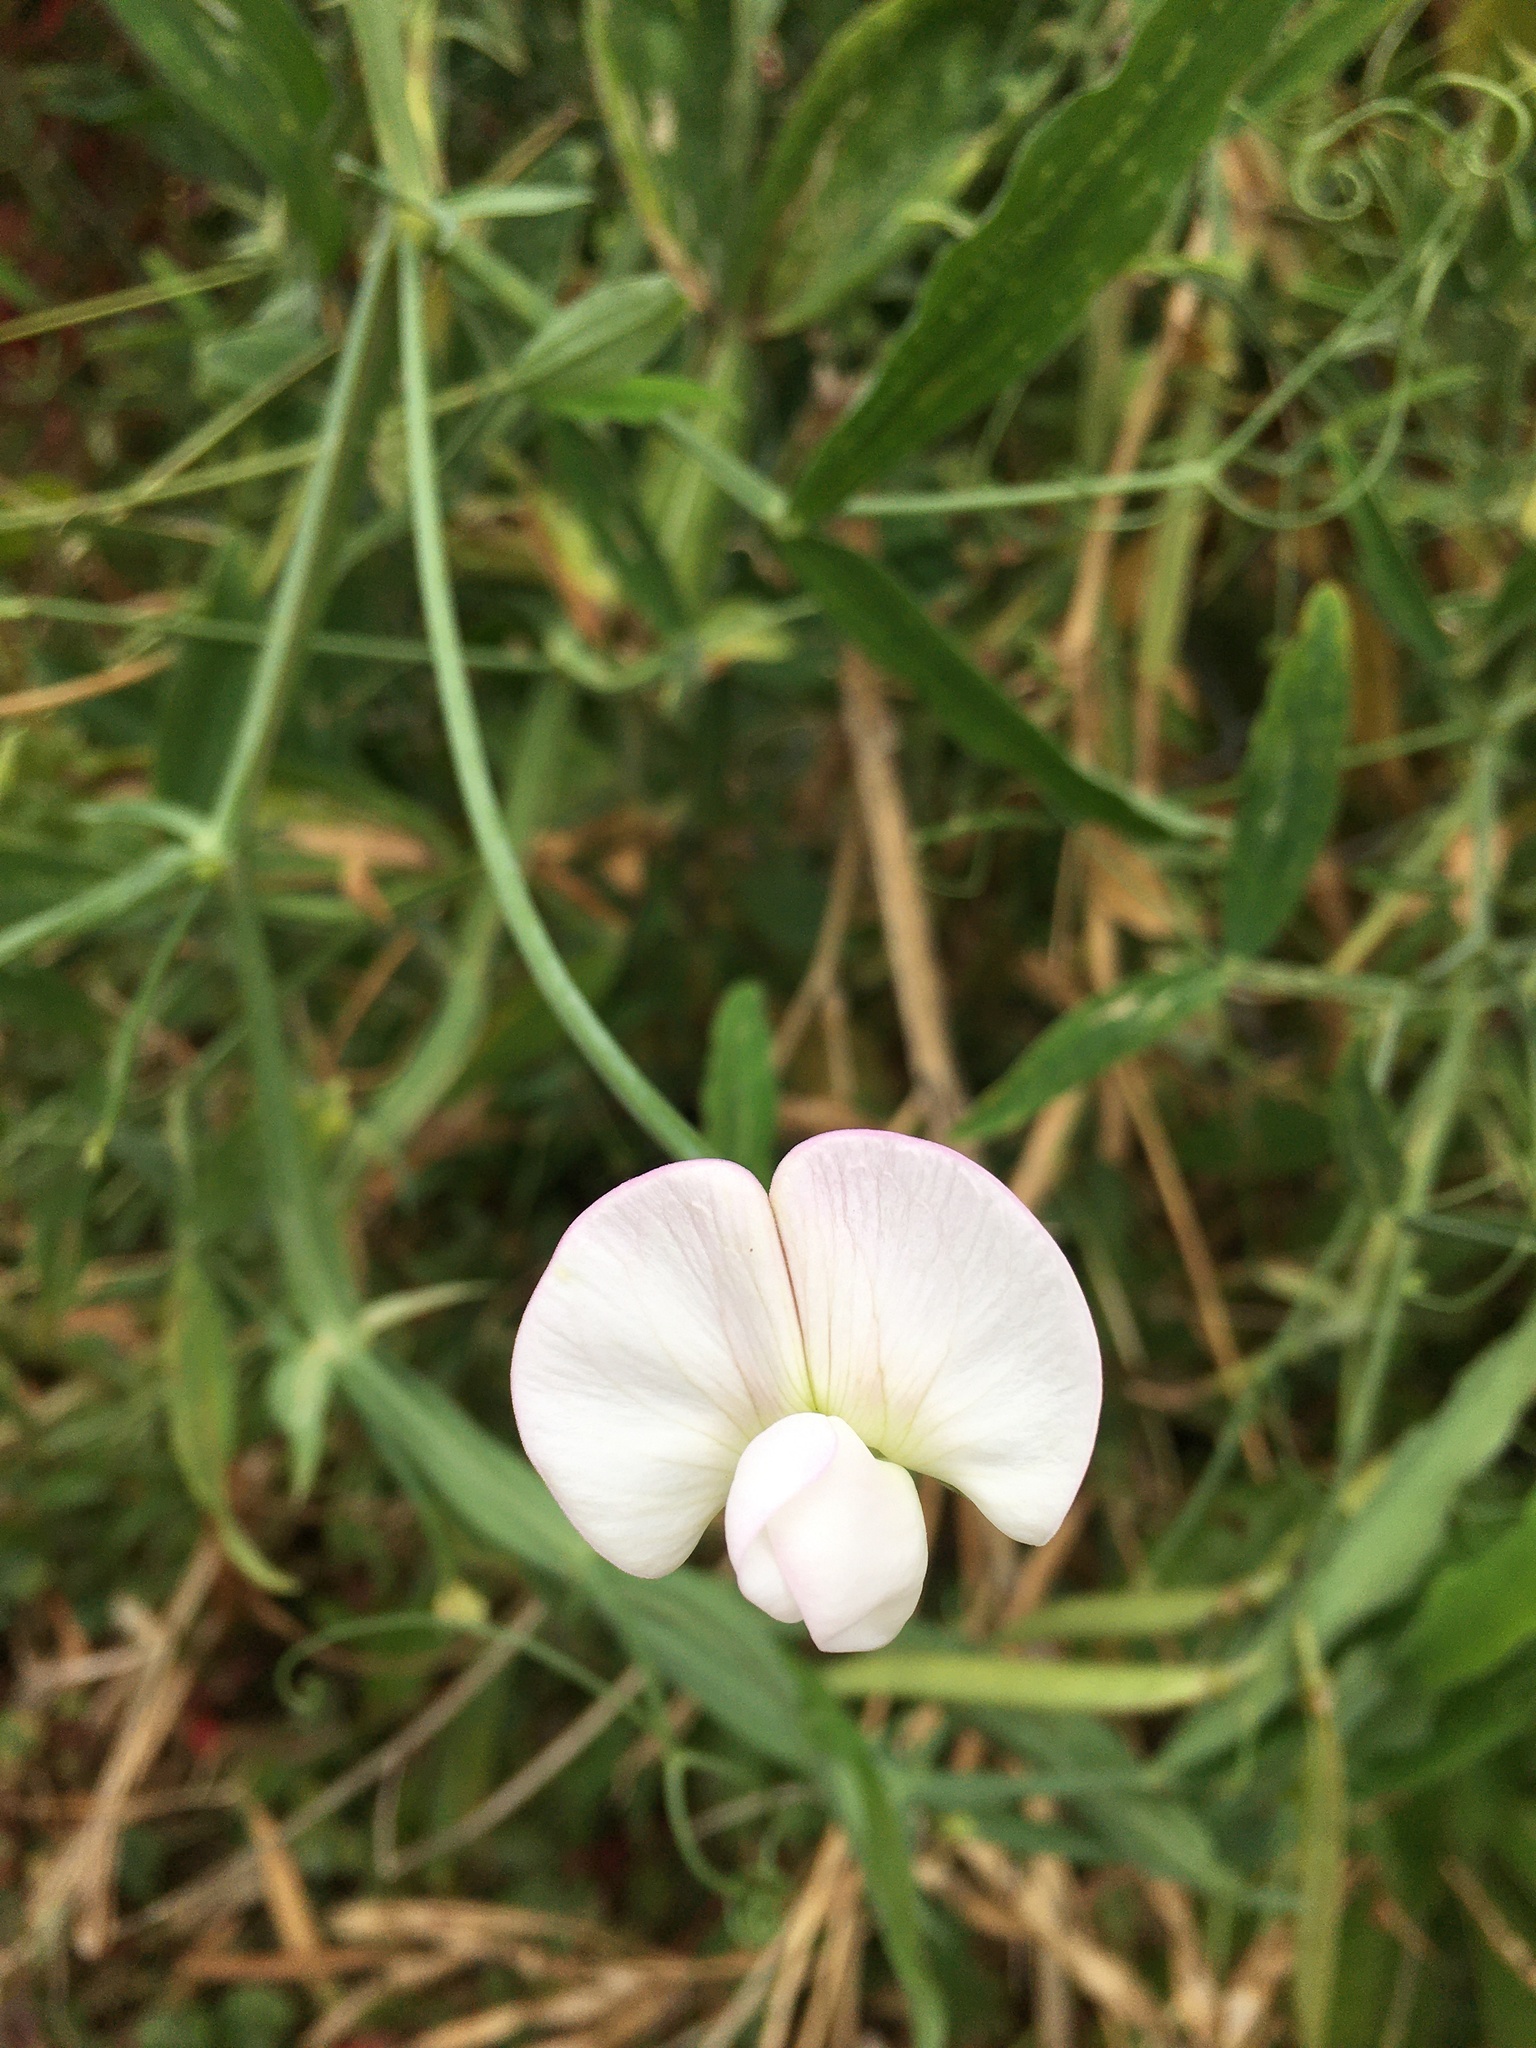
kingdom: Plantae
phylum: Tracheophyta
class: Magnoliopsida
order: Fabales
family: Fabaceae
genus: Lathyrus
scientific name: Lathyrus latifolius
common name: Perennial pea
